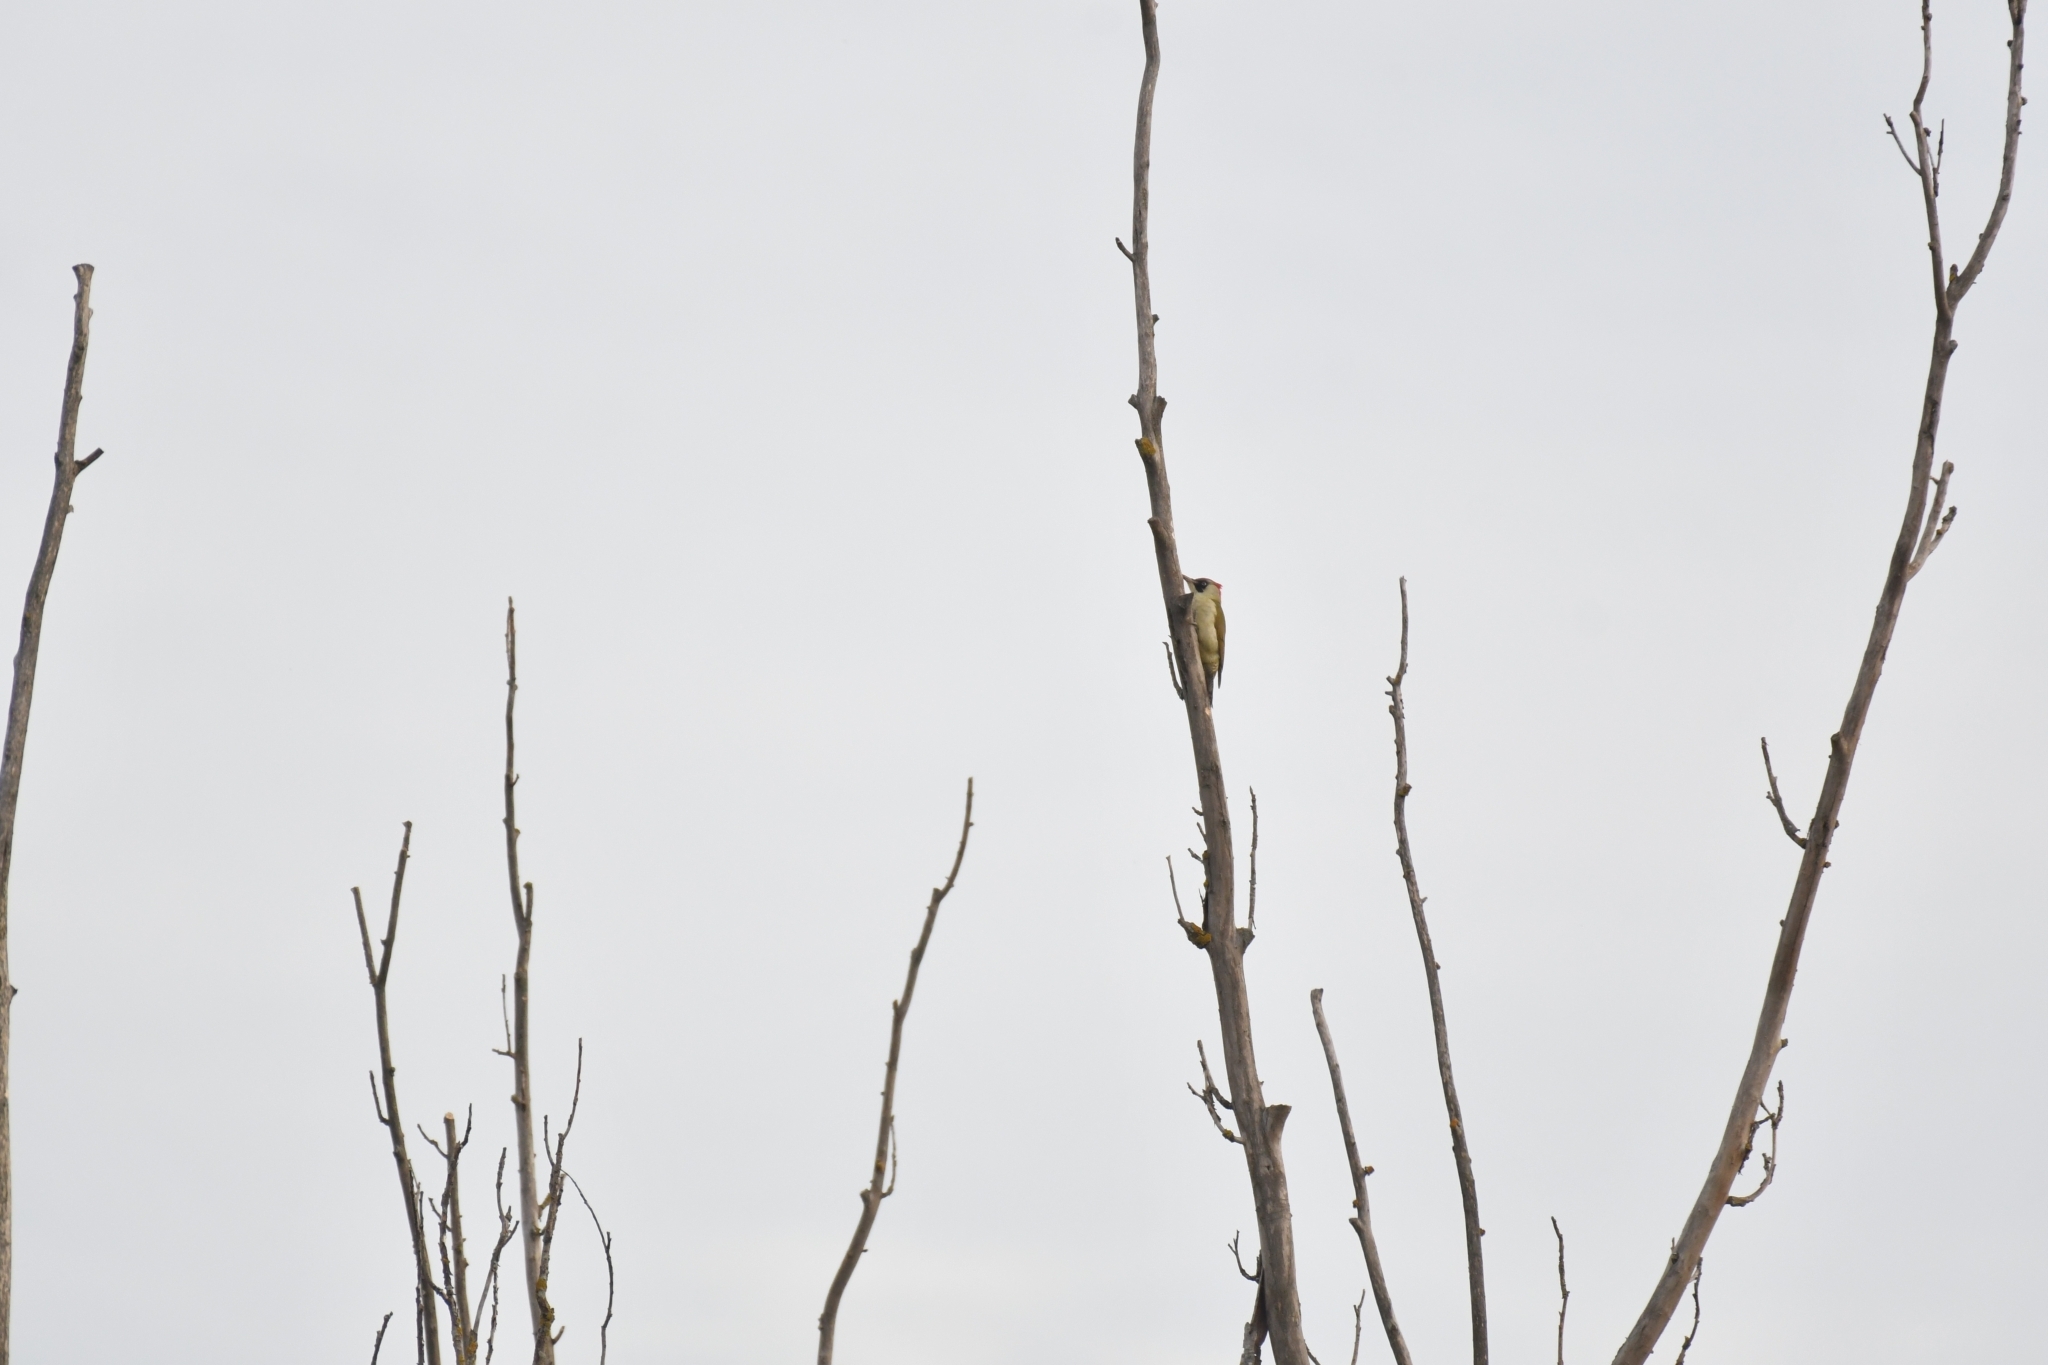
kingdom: Animalia
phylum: Chordata
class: Aves
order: Piciformes
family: Picidae
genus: Picus
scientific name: Picus viridis
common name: European green woodpecker
